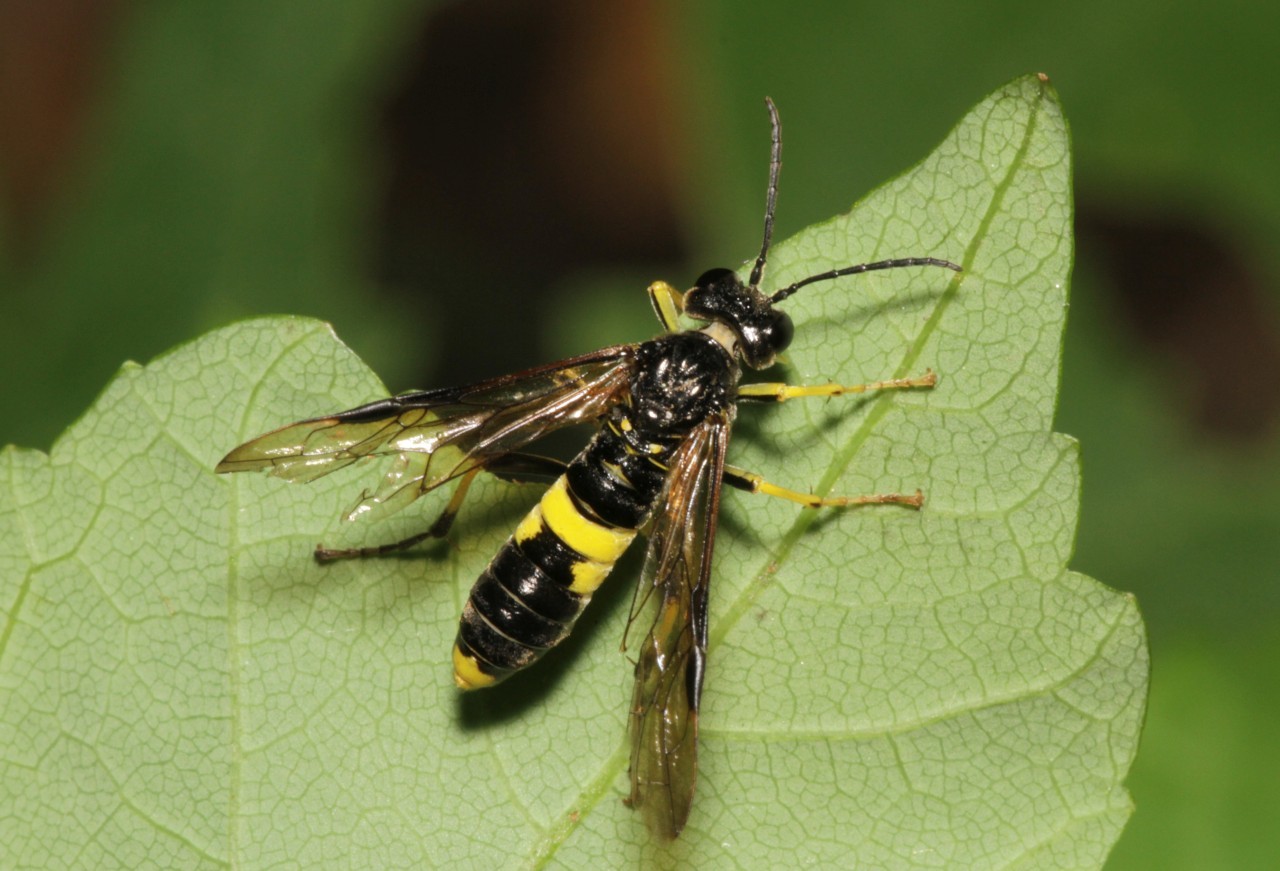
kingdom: Animalia
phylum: Arthropoda
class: Insecta
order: Hymenoptera
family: Tenthredinidae
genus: Tenthredo
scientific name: Tenthredo temula
